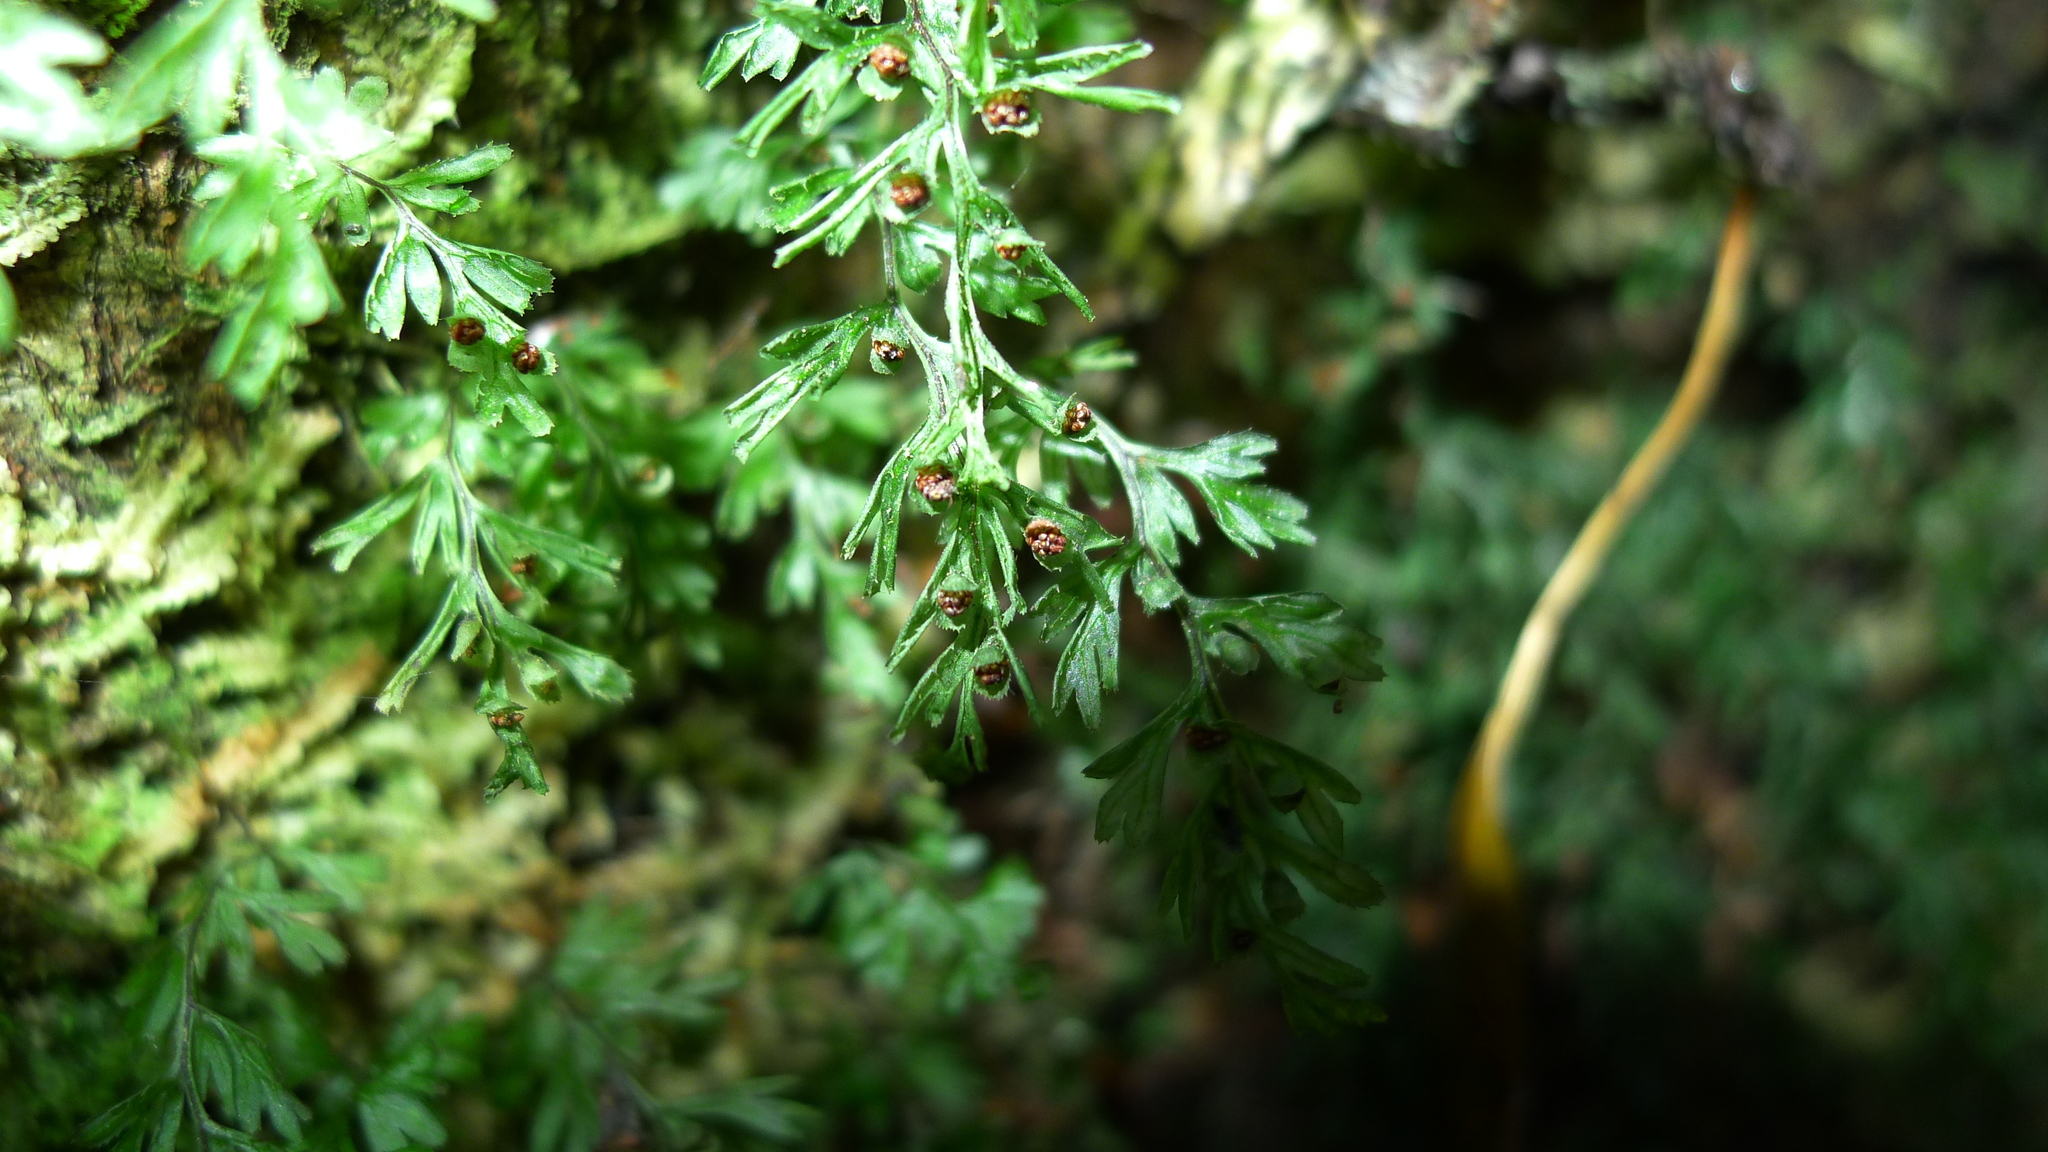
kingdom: Plantae
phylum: Tracheophyta
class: Polypodiopsida
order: Hymenophyllales
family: Hymenophyllaceae
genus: Hymenophyllum
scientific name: Hymenophyllum cupressiforme
